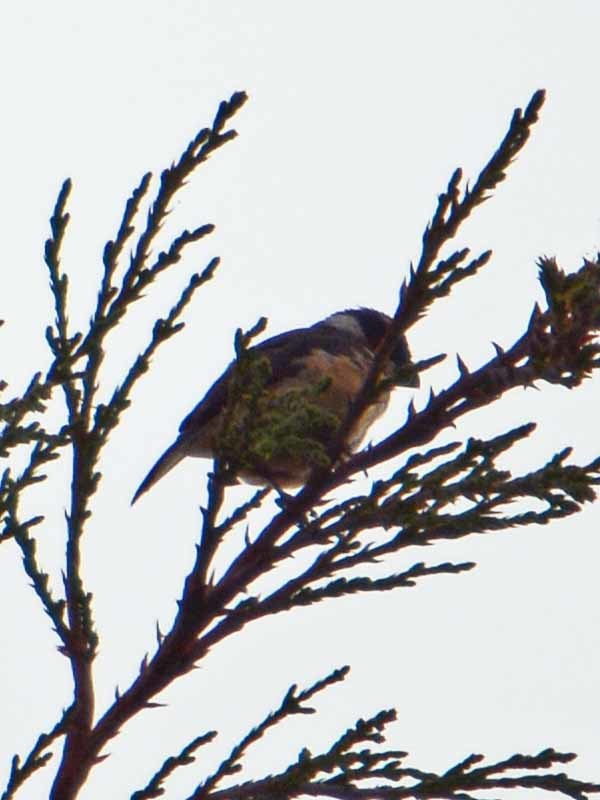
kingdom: Animalia
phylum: Chordata
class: Aves
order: Passeriformes
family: Thraupidae
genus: Sporophila
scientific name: Sporophila torqueola
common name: White-collared seedeater
